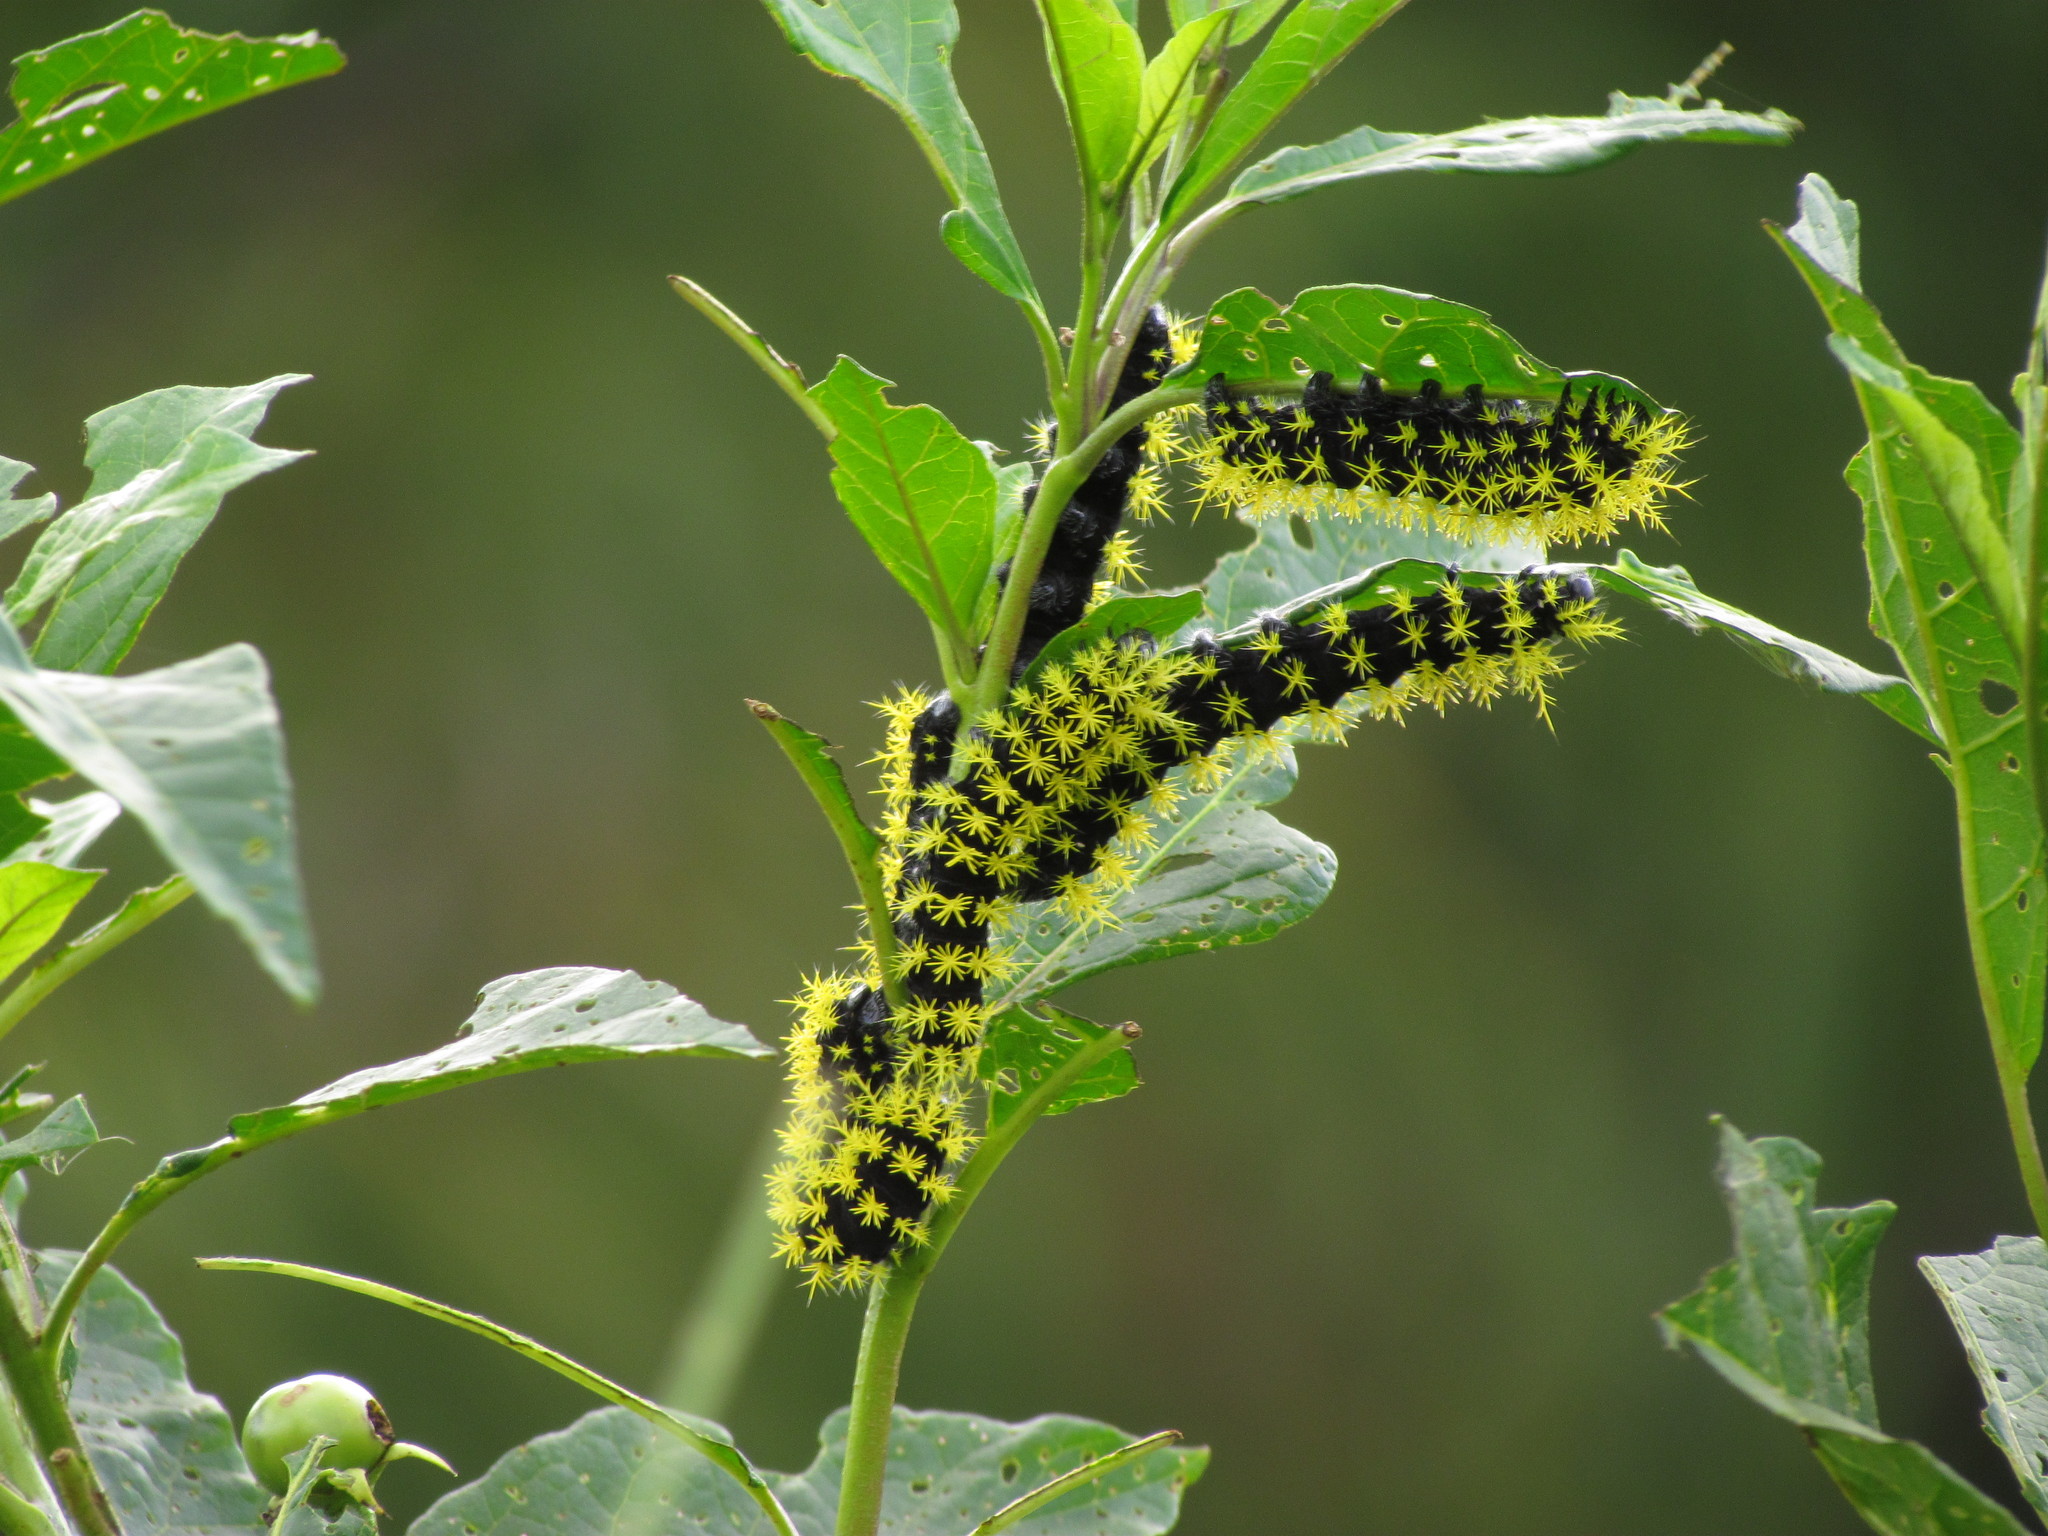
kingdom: Animalia
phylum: Arthropoda
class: Insecta
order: Lepidoptera
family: Saturniidae
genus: Leucanella
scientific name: Leucanella viridescens
